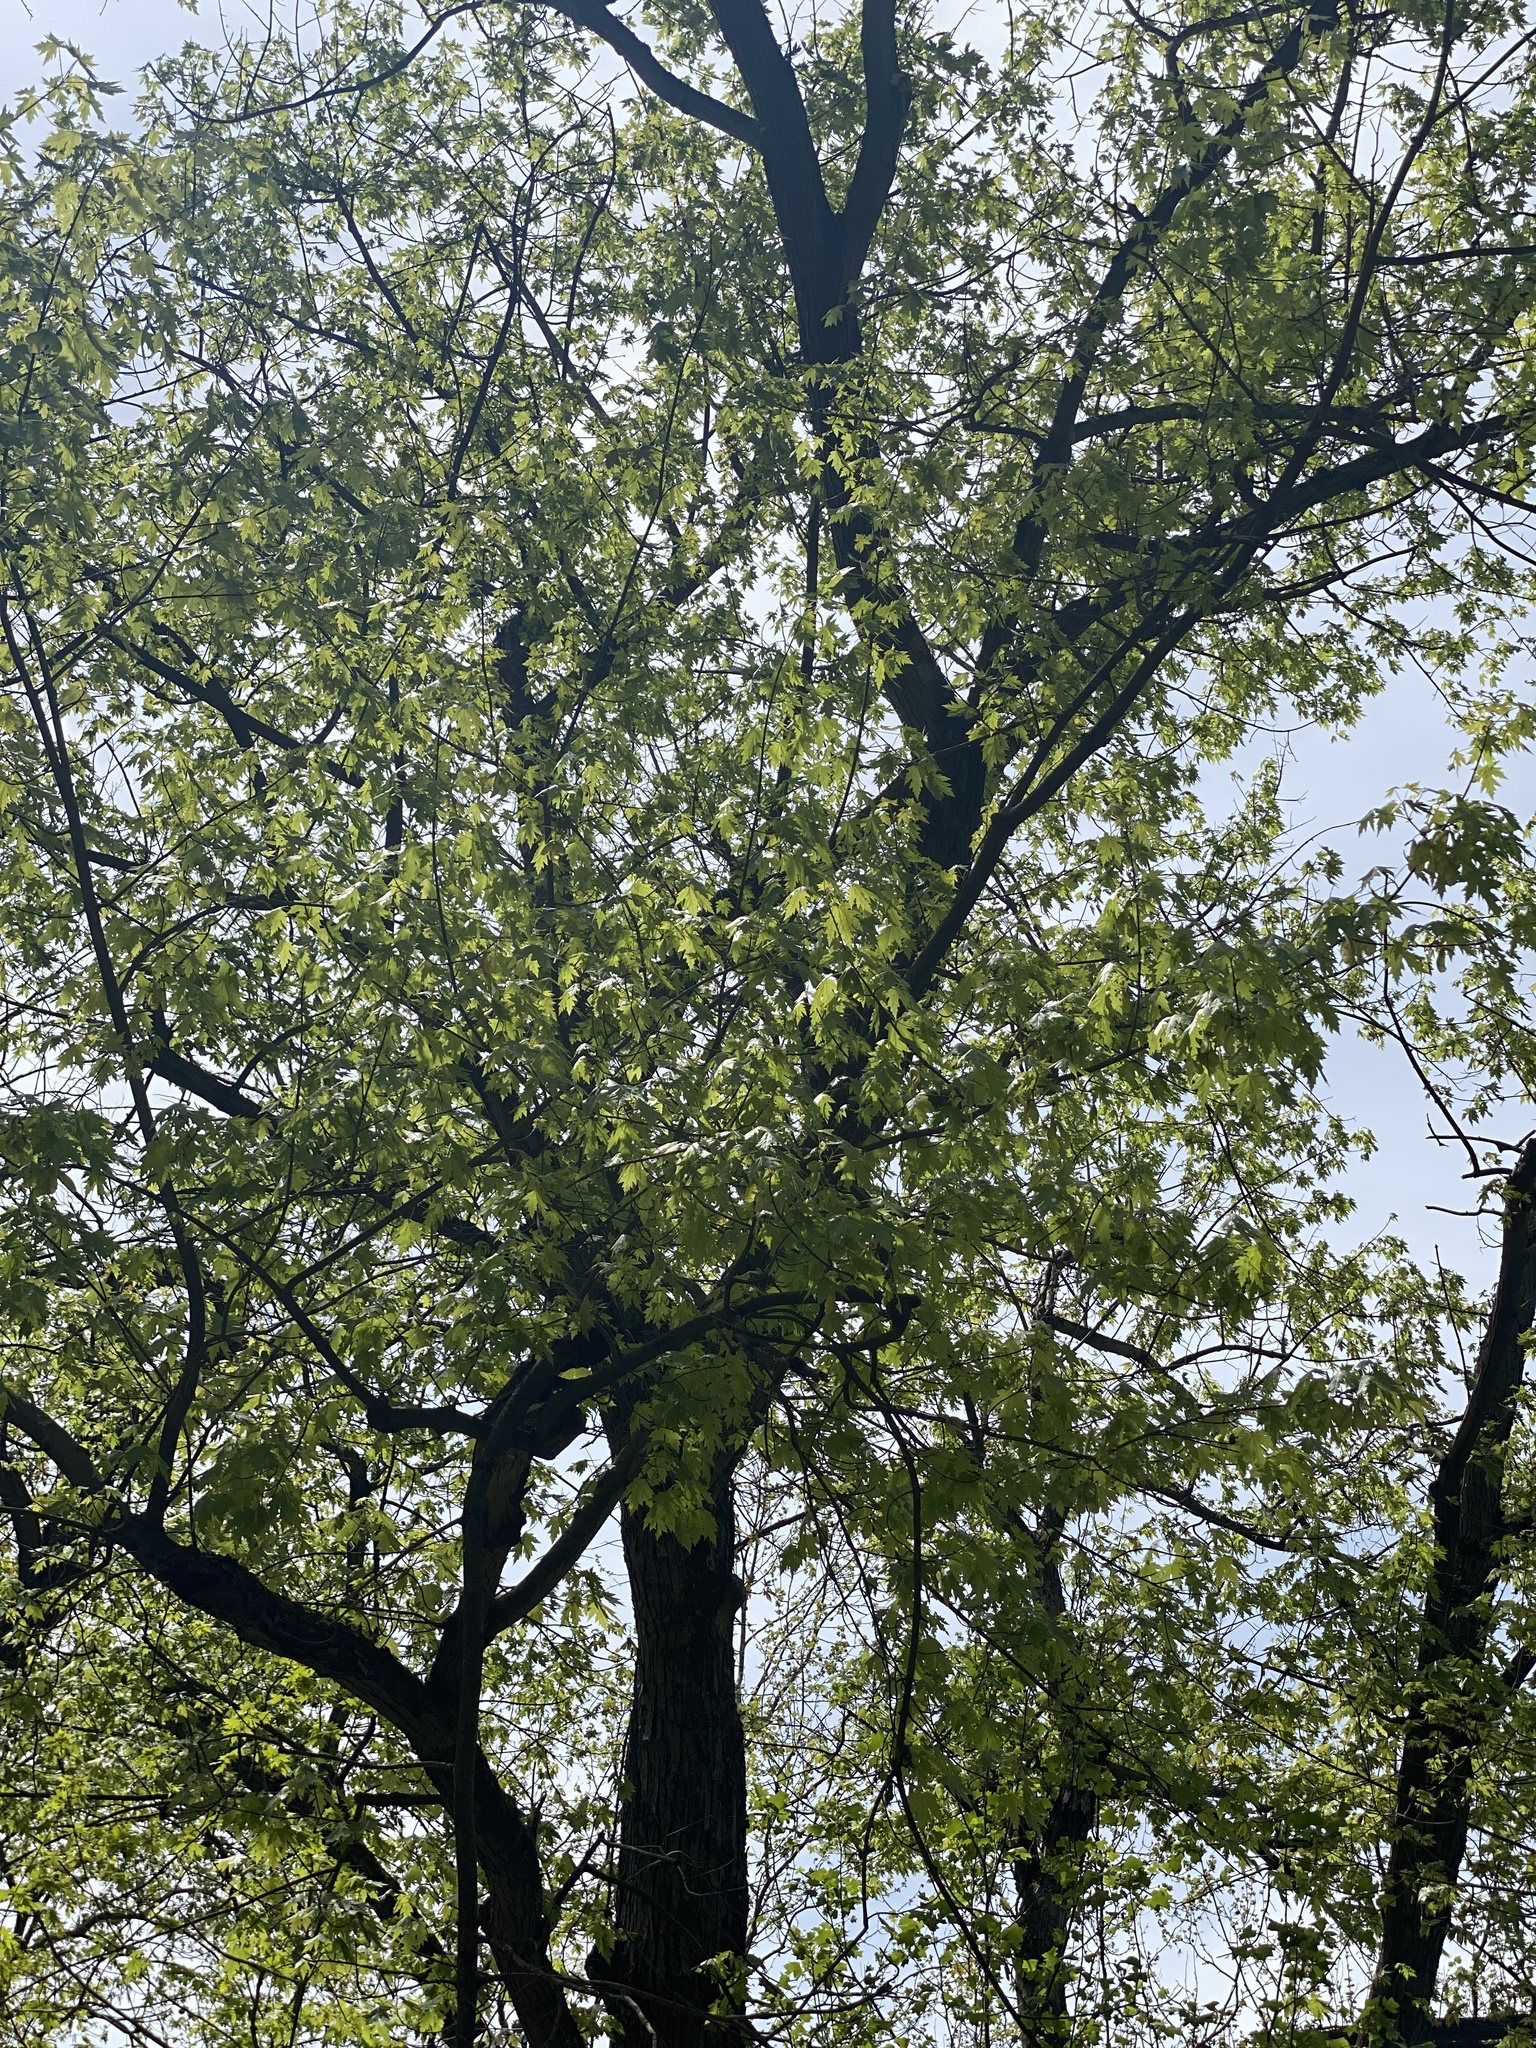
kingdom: Plantae
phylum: Tracheophyta
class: Magnoliopsida
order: Sapindales
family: Sapindaceae
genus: Acer
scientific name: Acer saccharinum
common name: Silver maple
